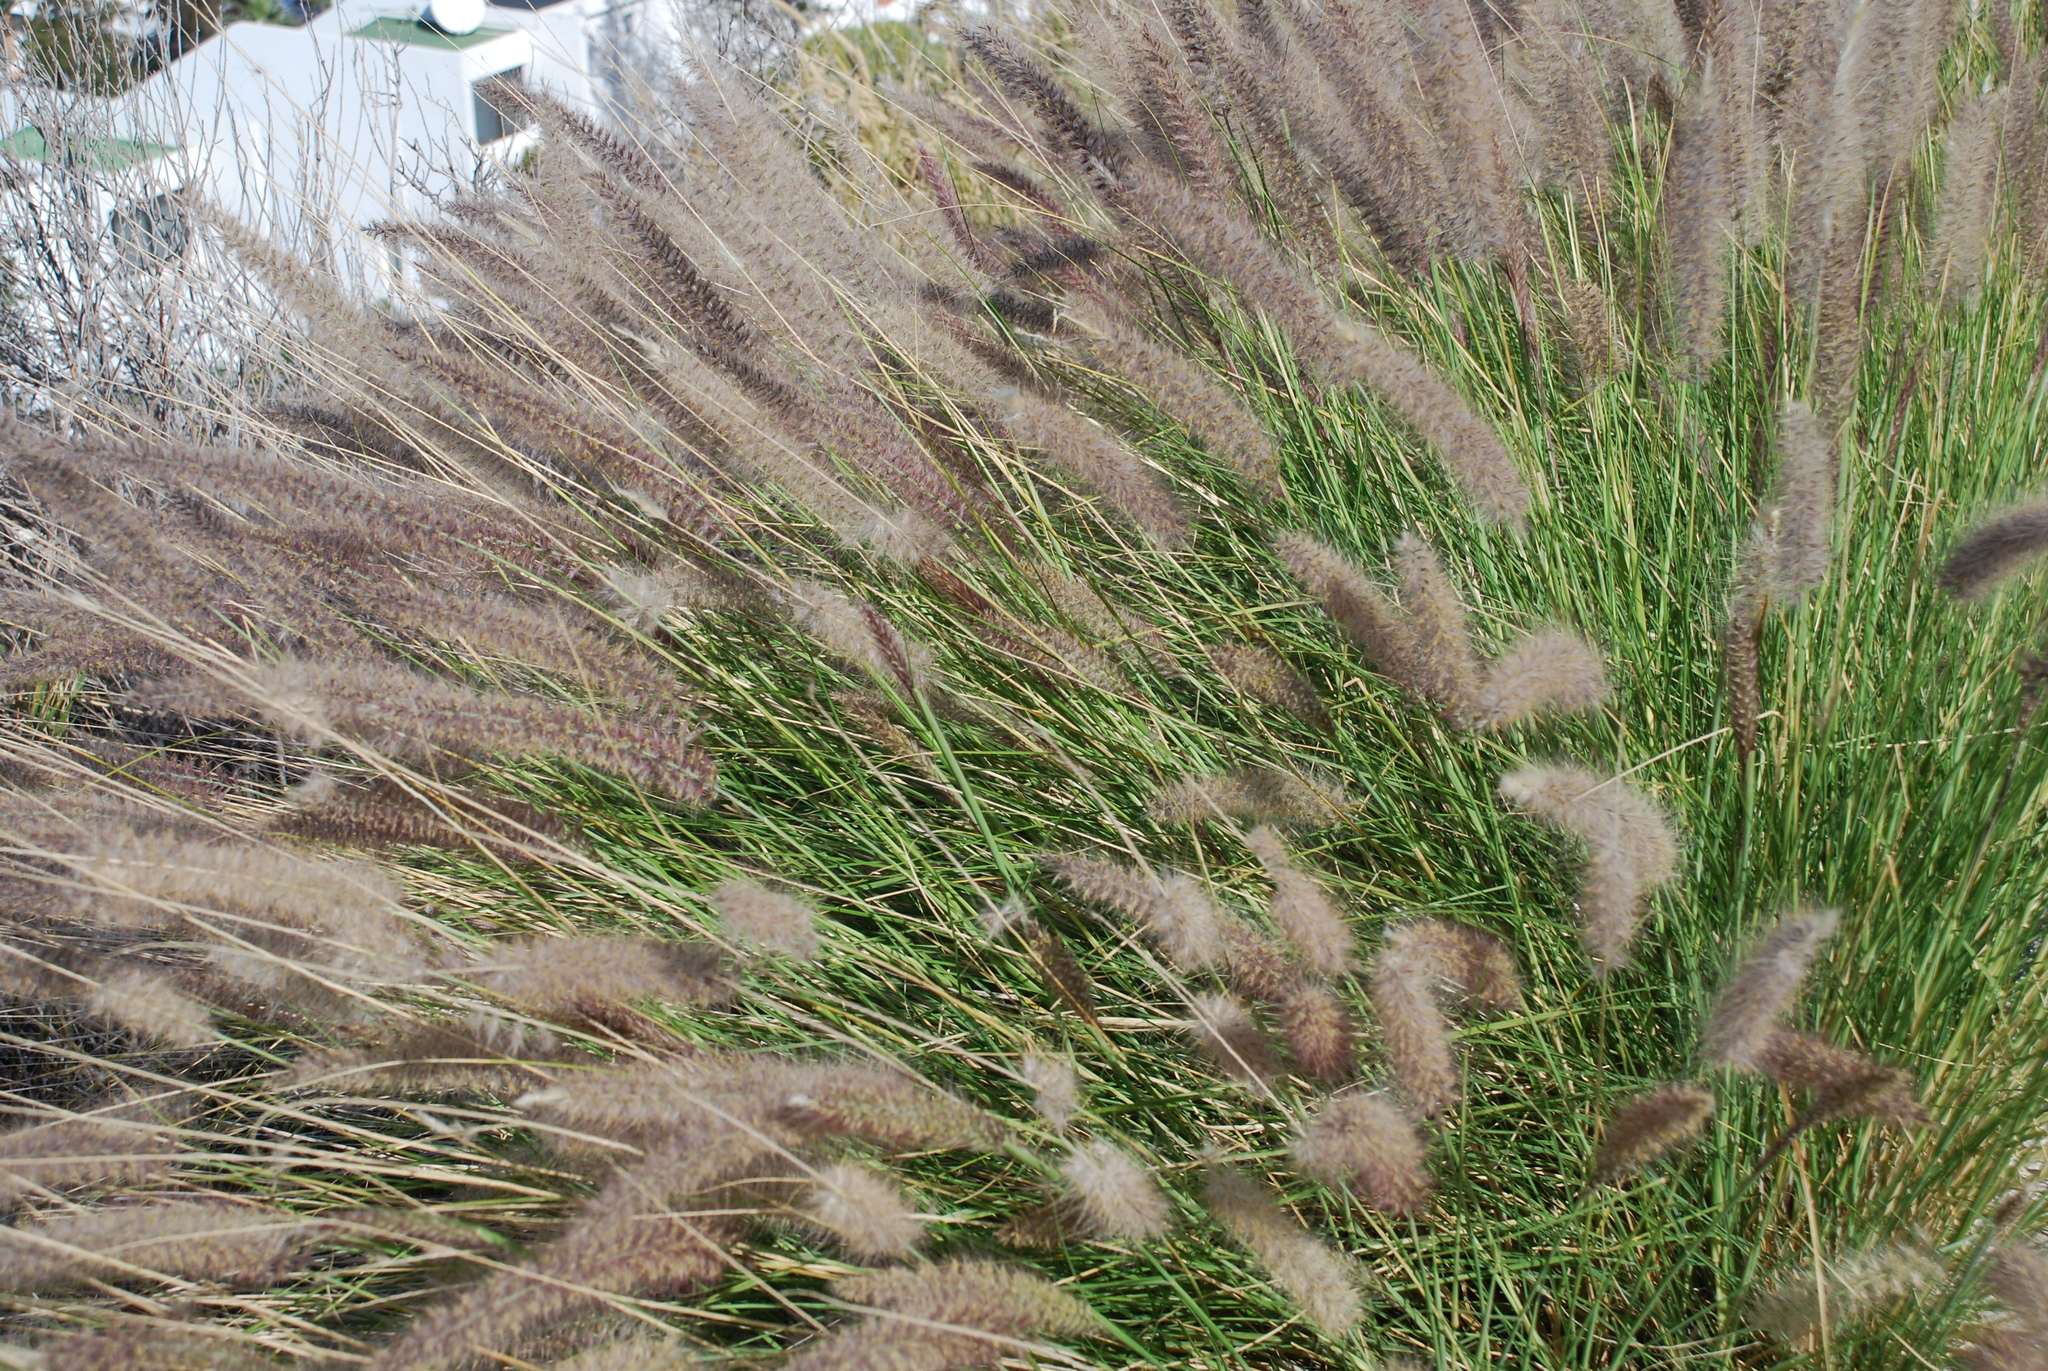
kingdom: Plantae
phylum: Tracheophyta
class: Liliopsida
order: Poales
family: Poaceae
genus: Cenchrus
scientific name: Cenchrus setaceus
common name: Crimson fountaingrass
